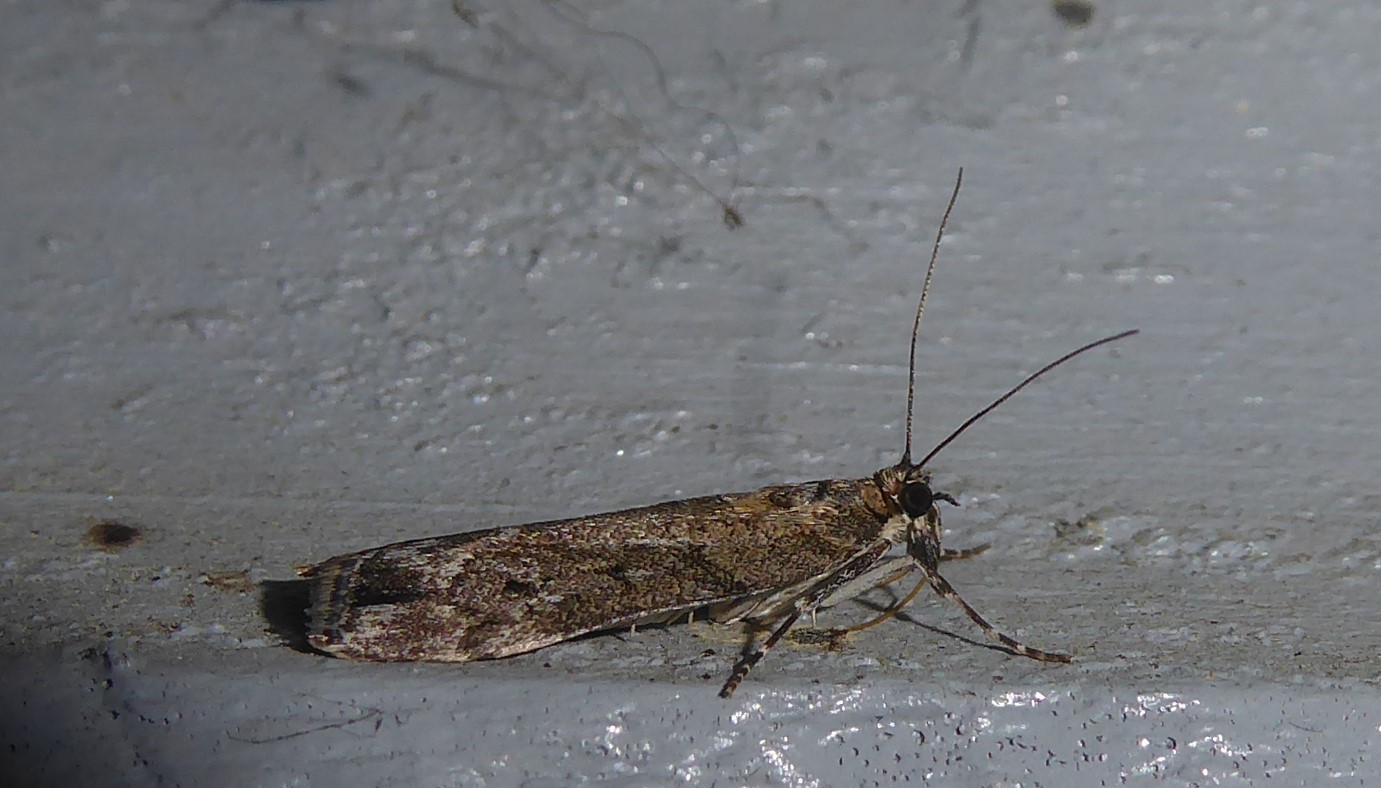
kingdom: Animalia
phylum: Arthropoda
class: Insecta
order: Lepidoptera
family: Crambidae
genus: Eudonia
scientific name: Eudonia submarginalis
